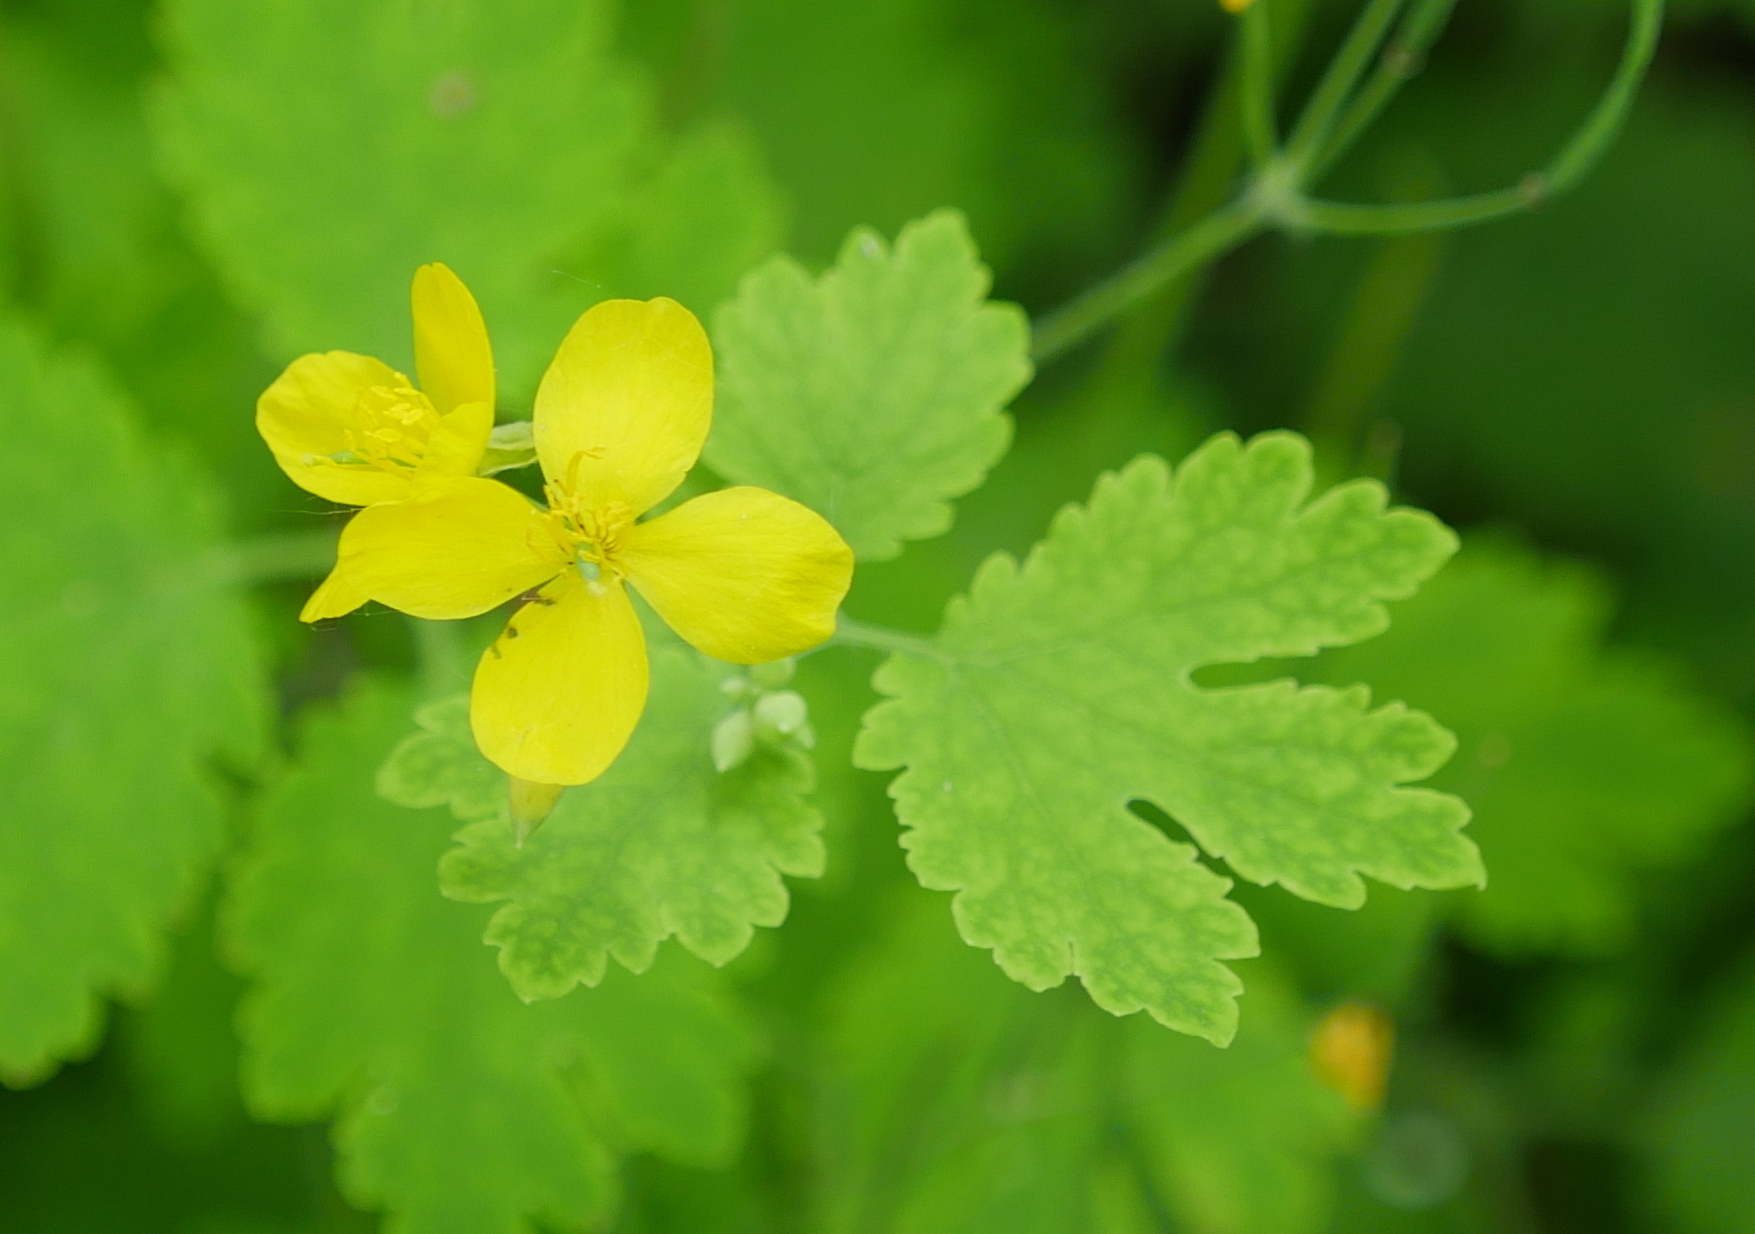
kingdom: Plantae
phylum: Tracheophyta
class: Magnoliopsida
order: Ranunculales
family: Papaveraceae
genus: Chelidonium
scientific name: Chelidonium majus
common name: Greater celandine
